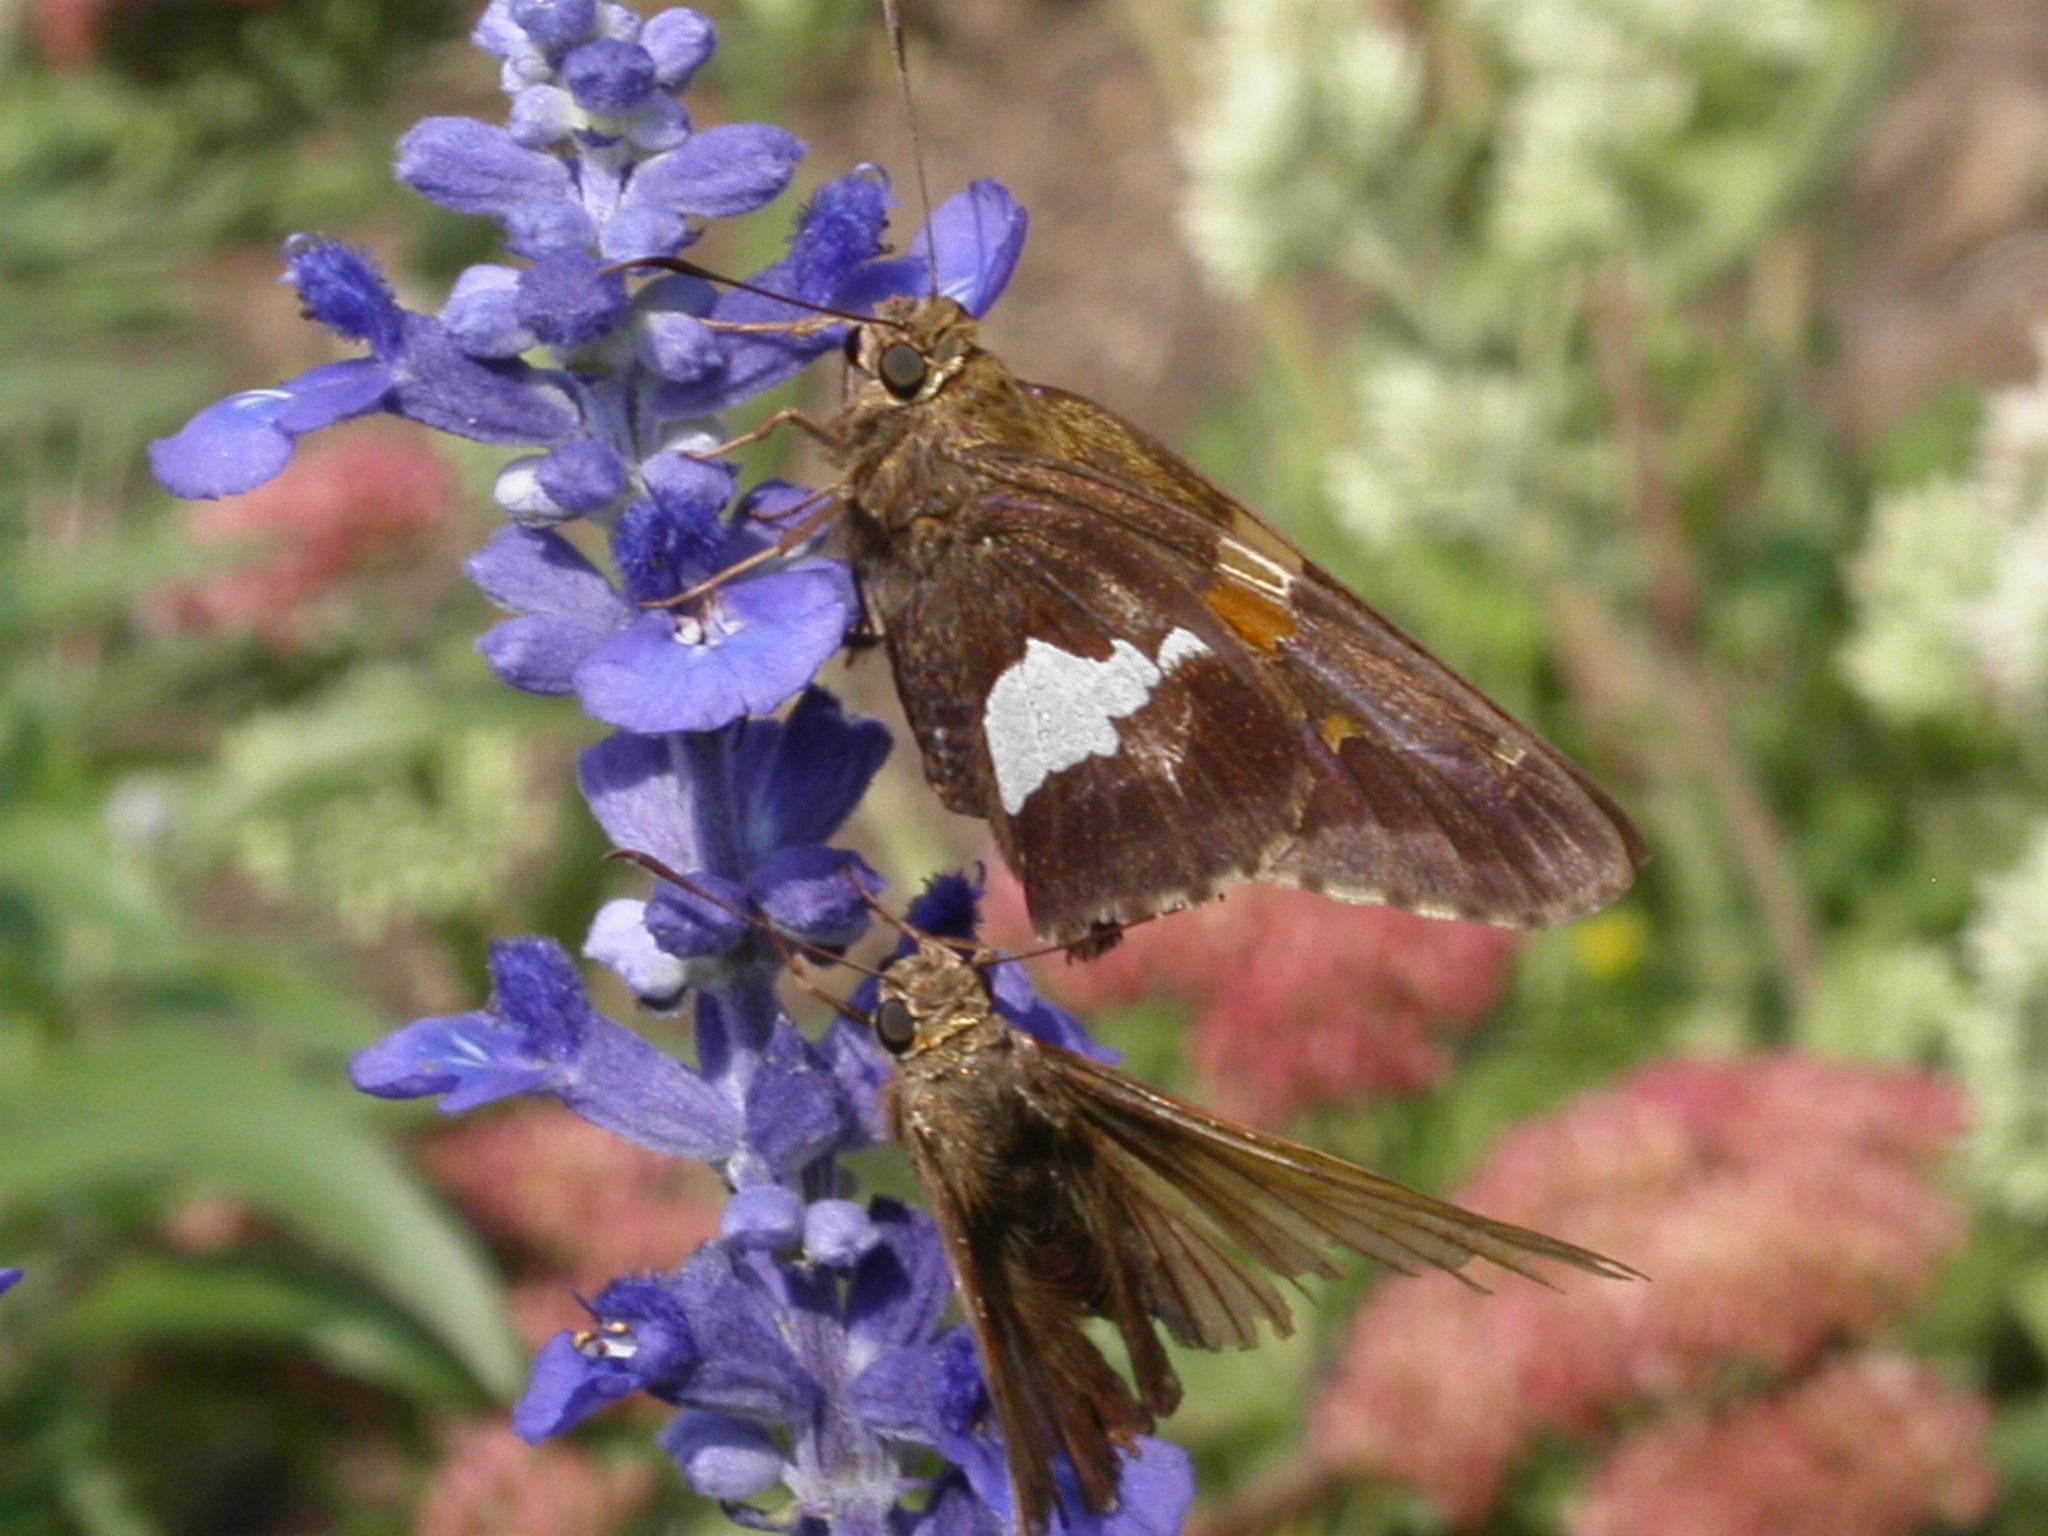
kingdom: Animalia
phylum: Arthropoda
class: Insecta
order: Lepidoptera
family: Hesperiidae
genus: Epargyreus
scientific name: Epargyreus clarus
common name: Silver-spotted skipper
